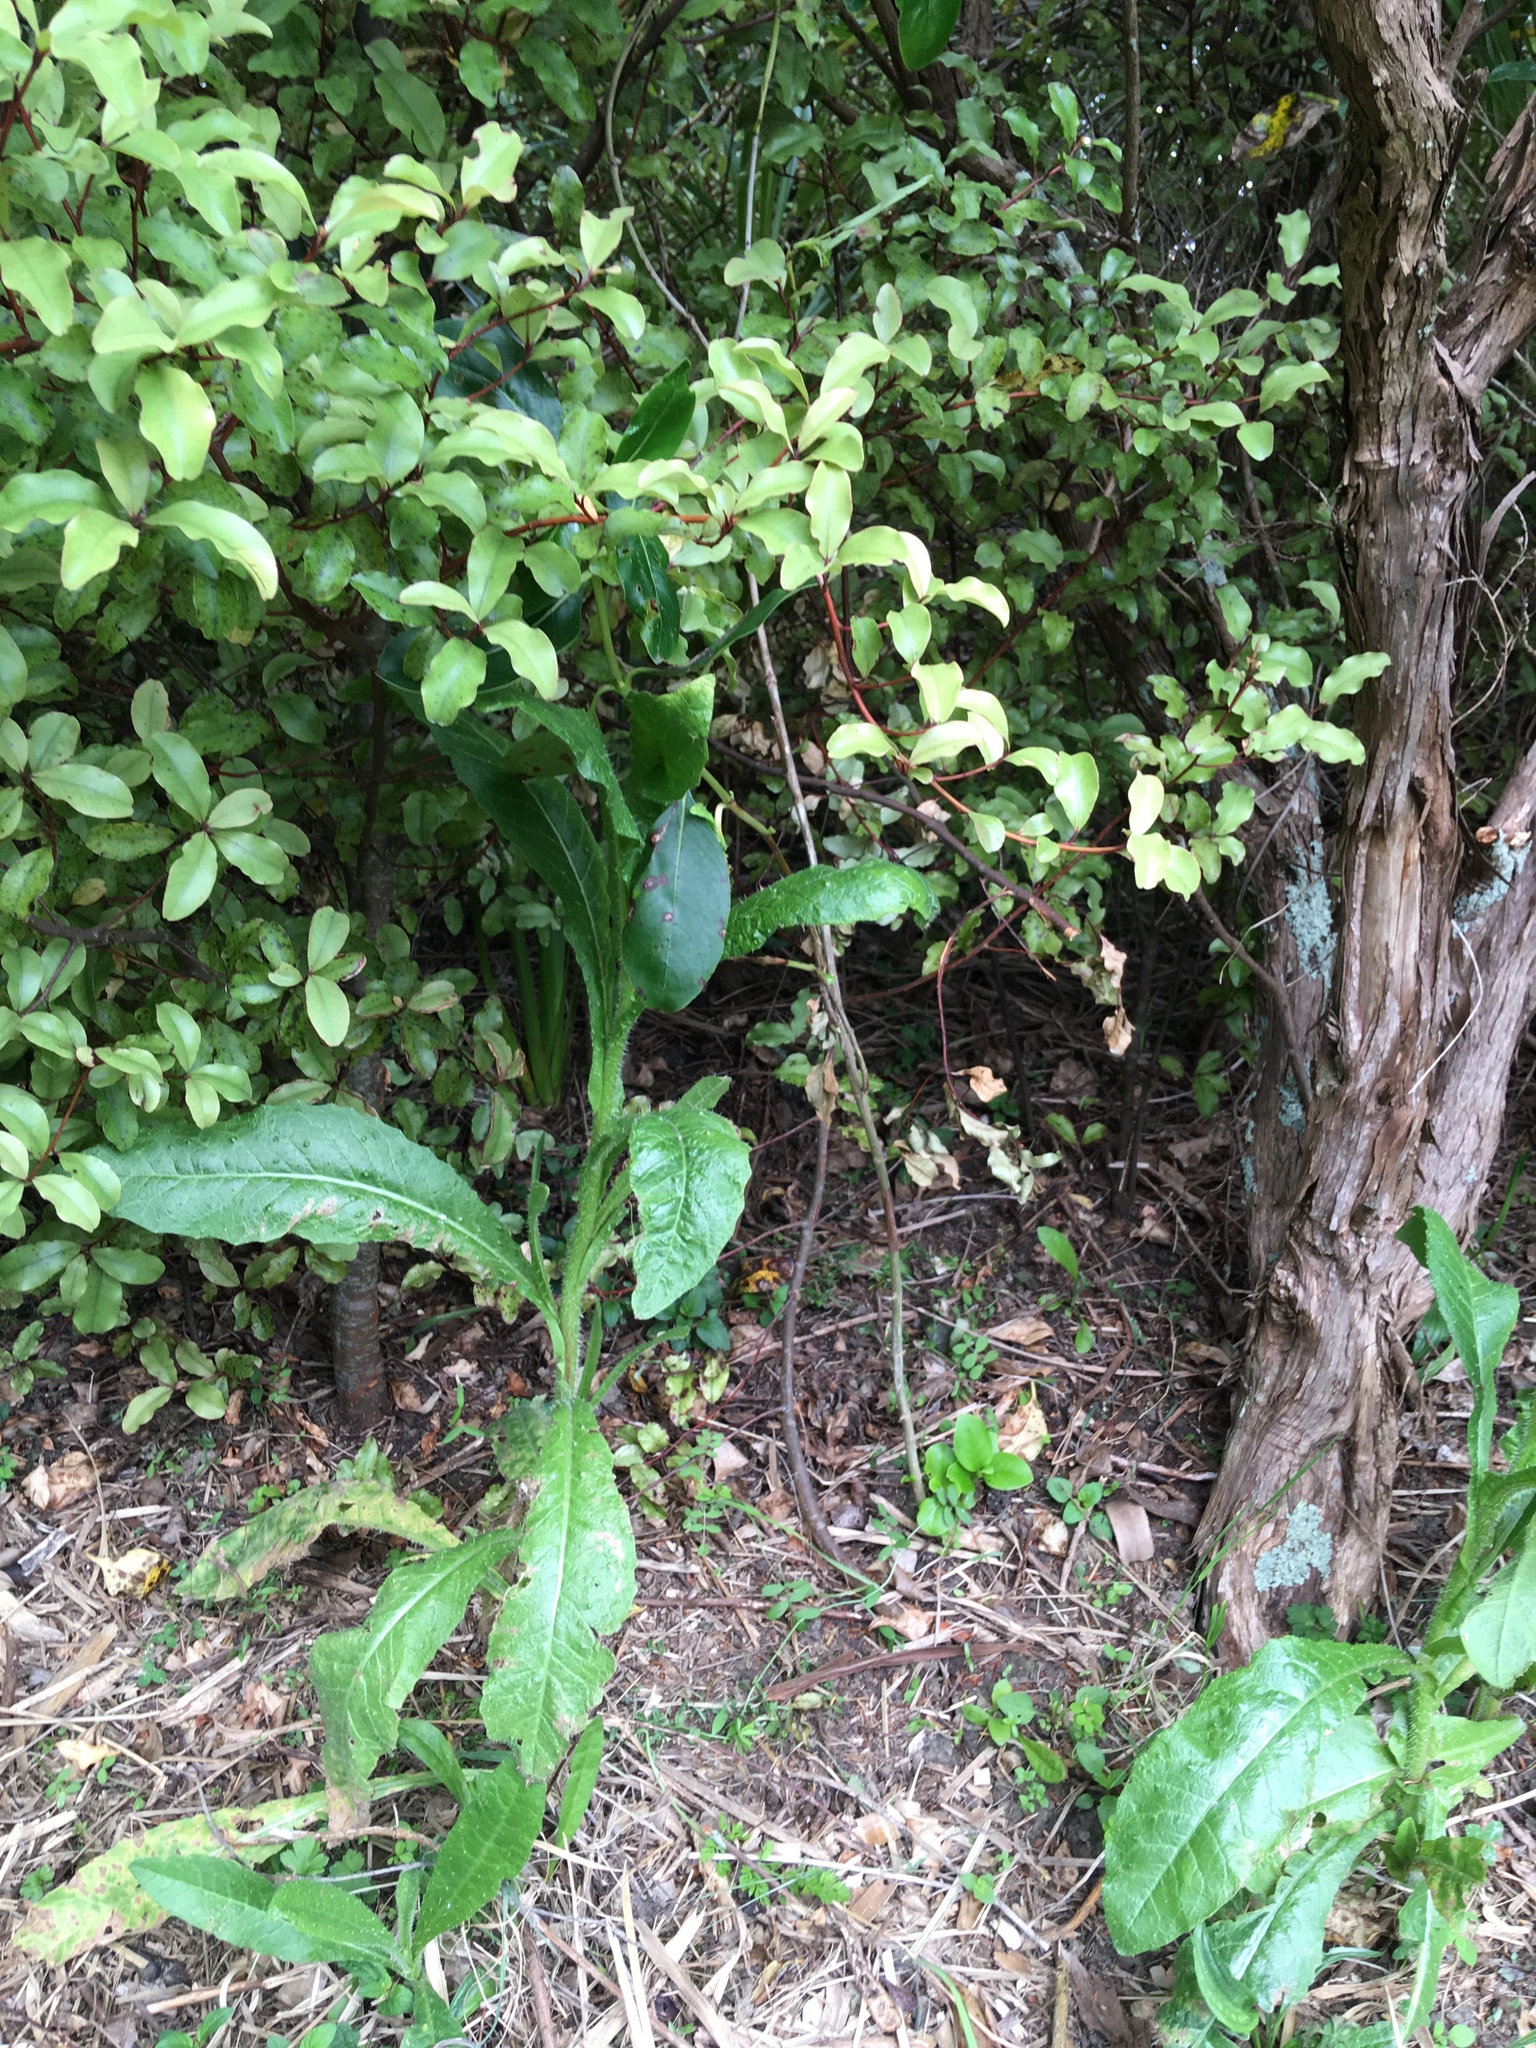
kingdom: Plantae
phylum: Tracheophyta
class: Magnoliopsida
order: Asterales
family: Asteraceae
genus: Helminthotheca
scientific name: Helminthotheca echioides
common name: Ox-tongue
